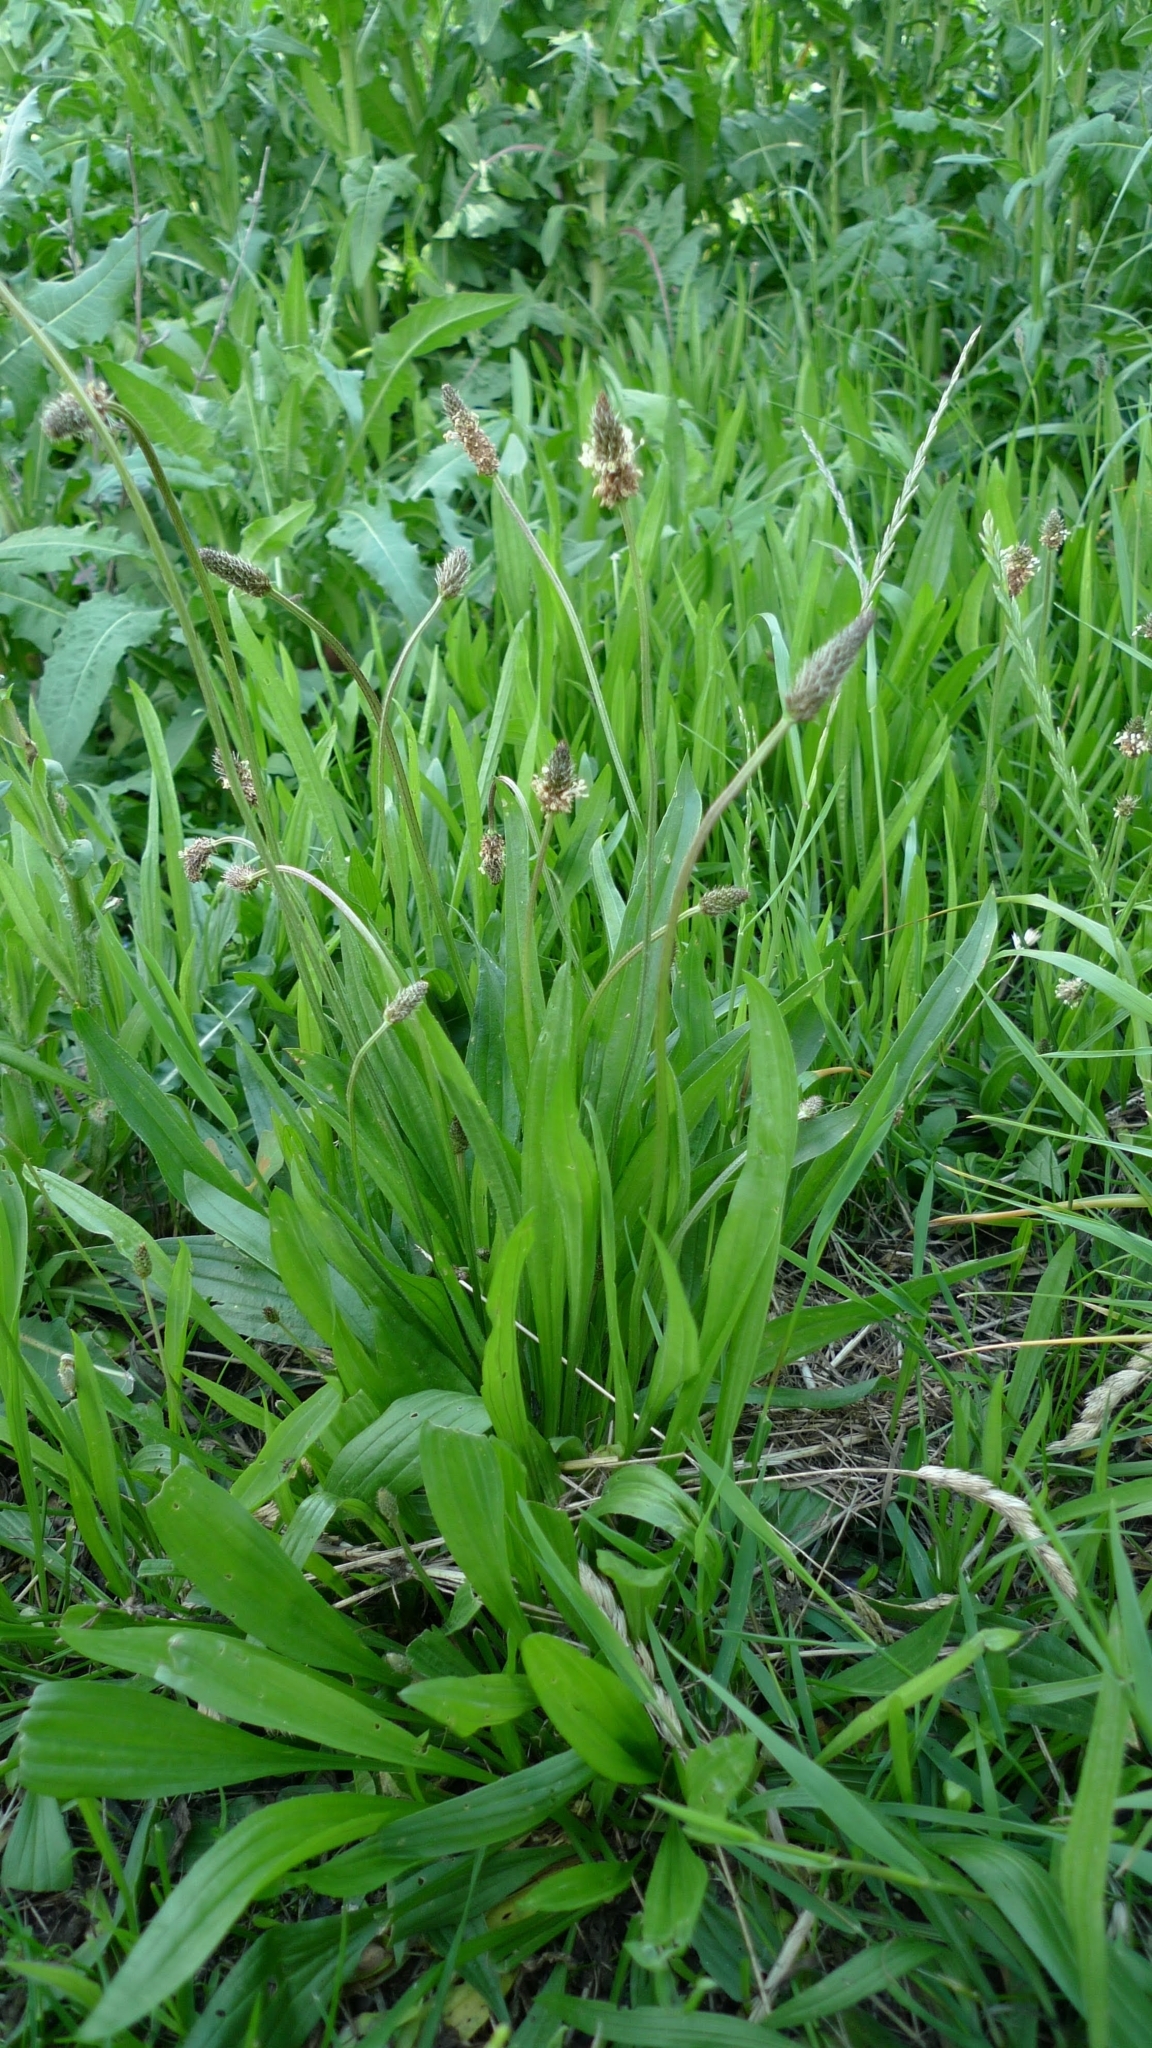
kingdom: Plantae
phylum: Tracheophyta
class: Magnoliopsida
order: Lamiales
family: Plantaginaceae
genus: Plantago
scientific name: Plantago lanceolata
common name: Ribwort plantain
